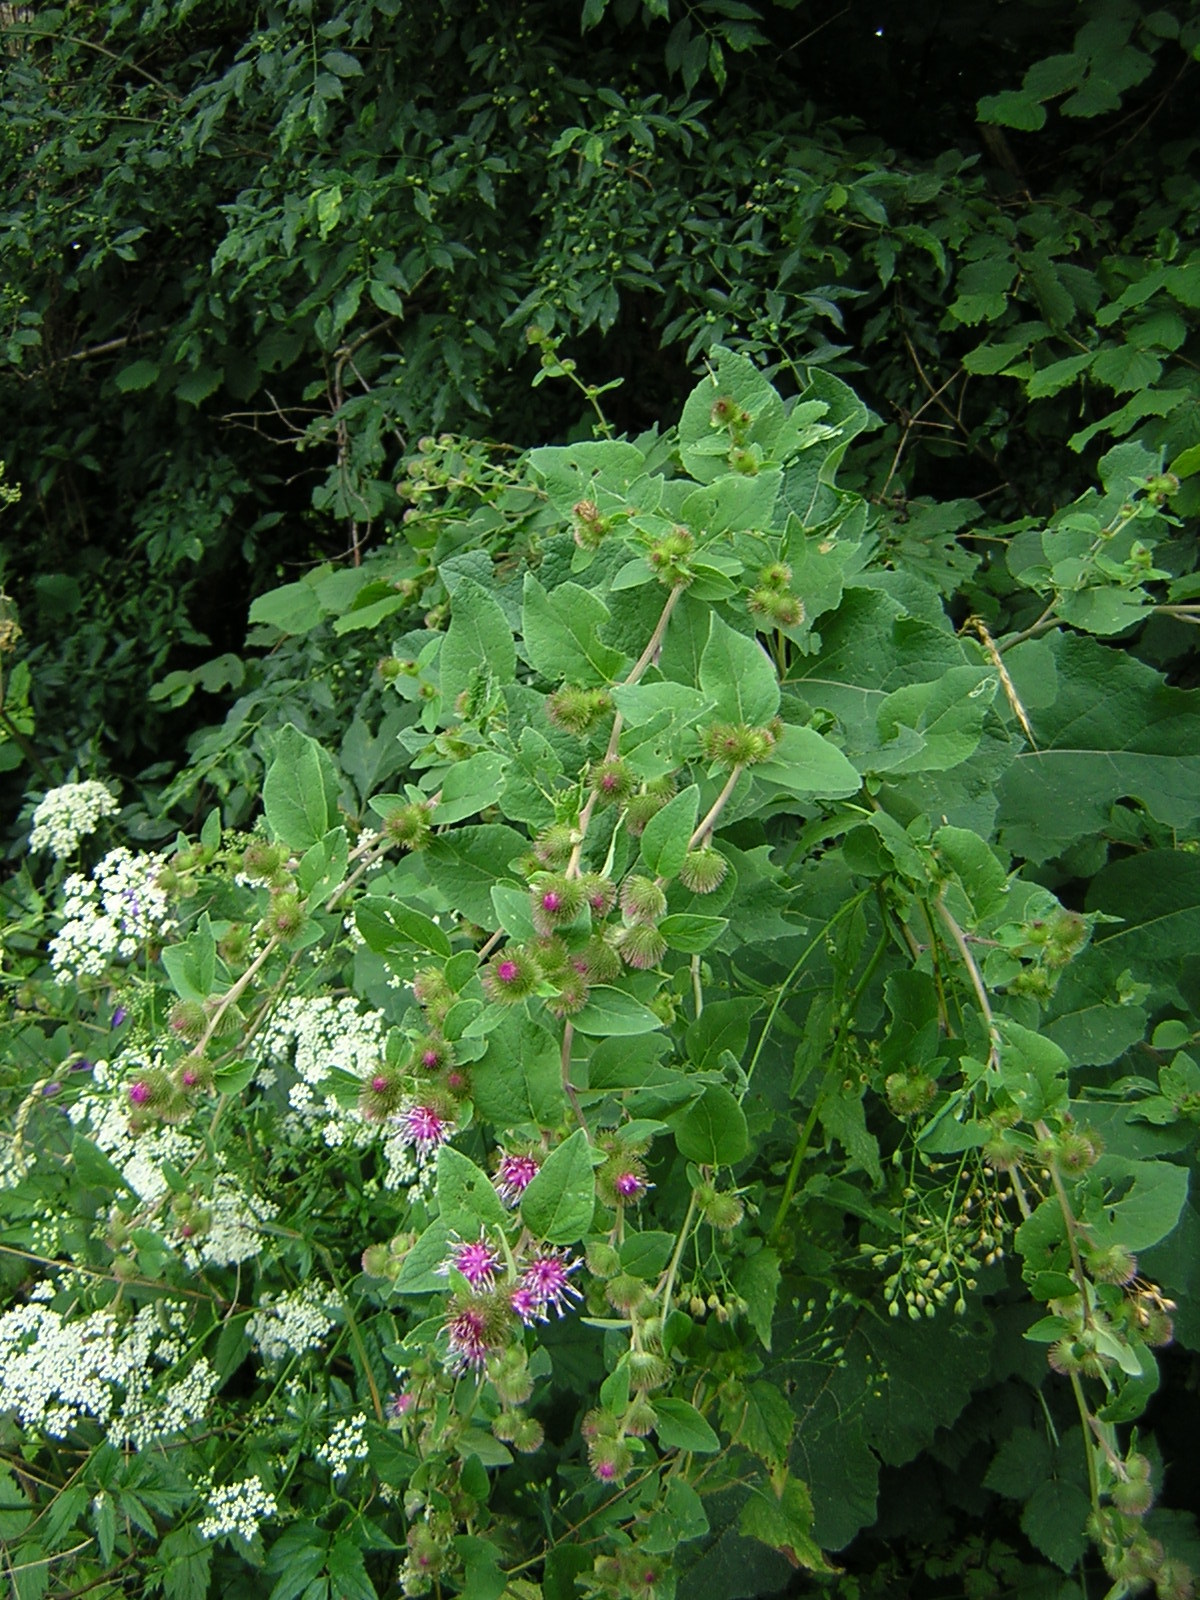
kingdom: Plantae
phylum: Tracheophyta
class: Magnoliopsida
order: Asterales
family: Asteraceae
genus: Arctium
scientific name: Arctium minus
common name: Lesser burdock
